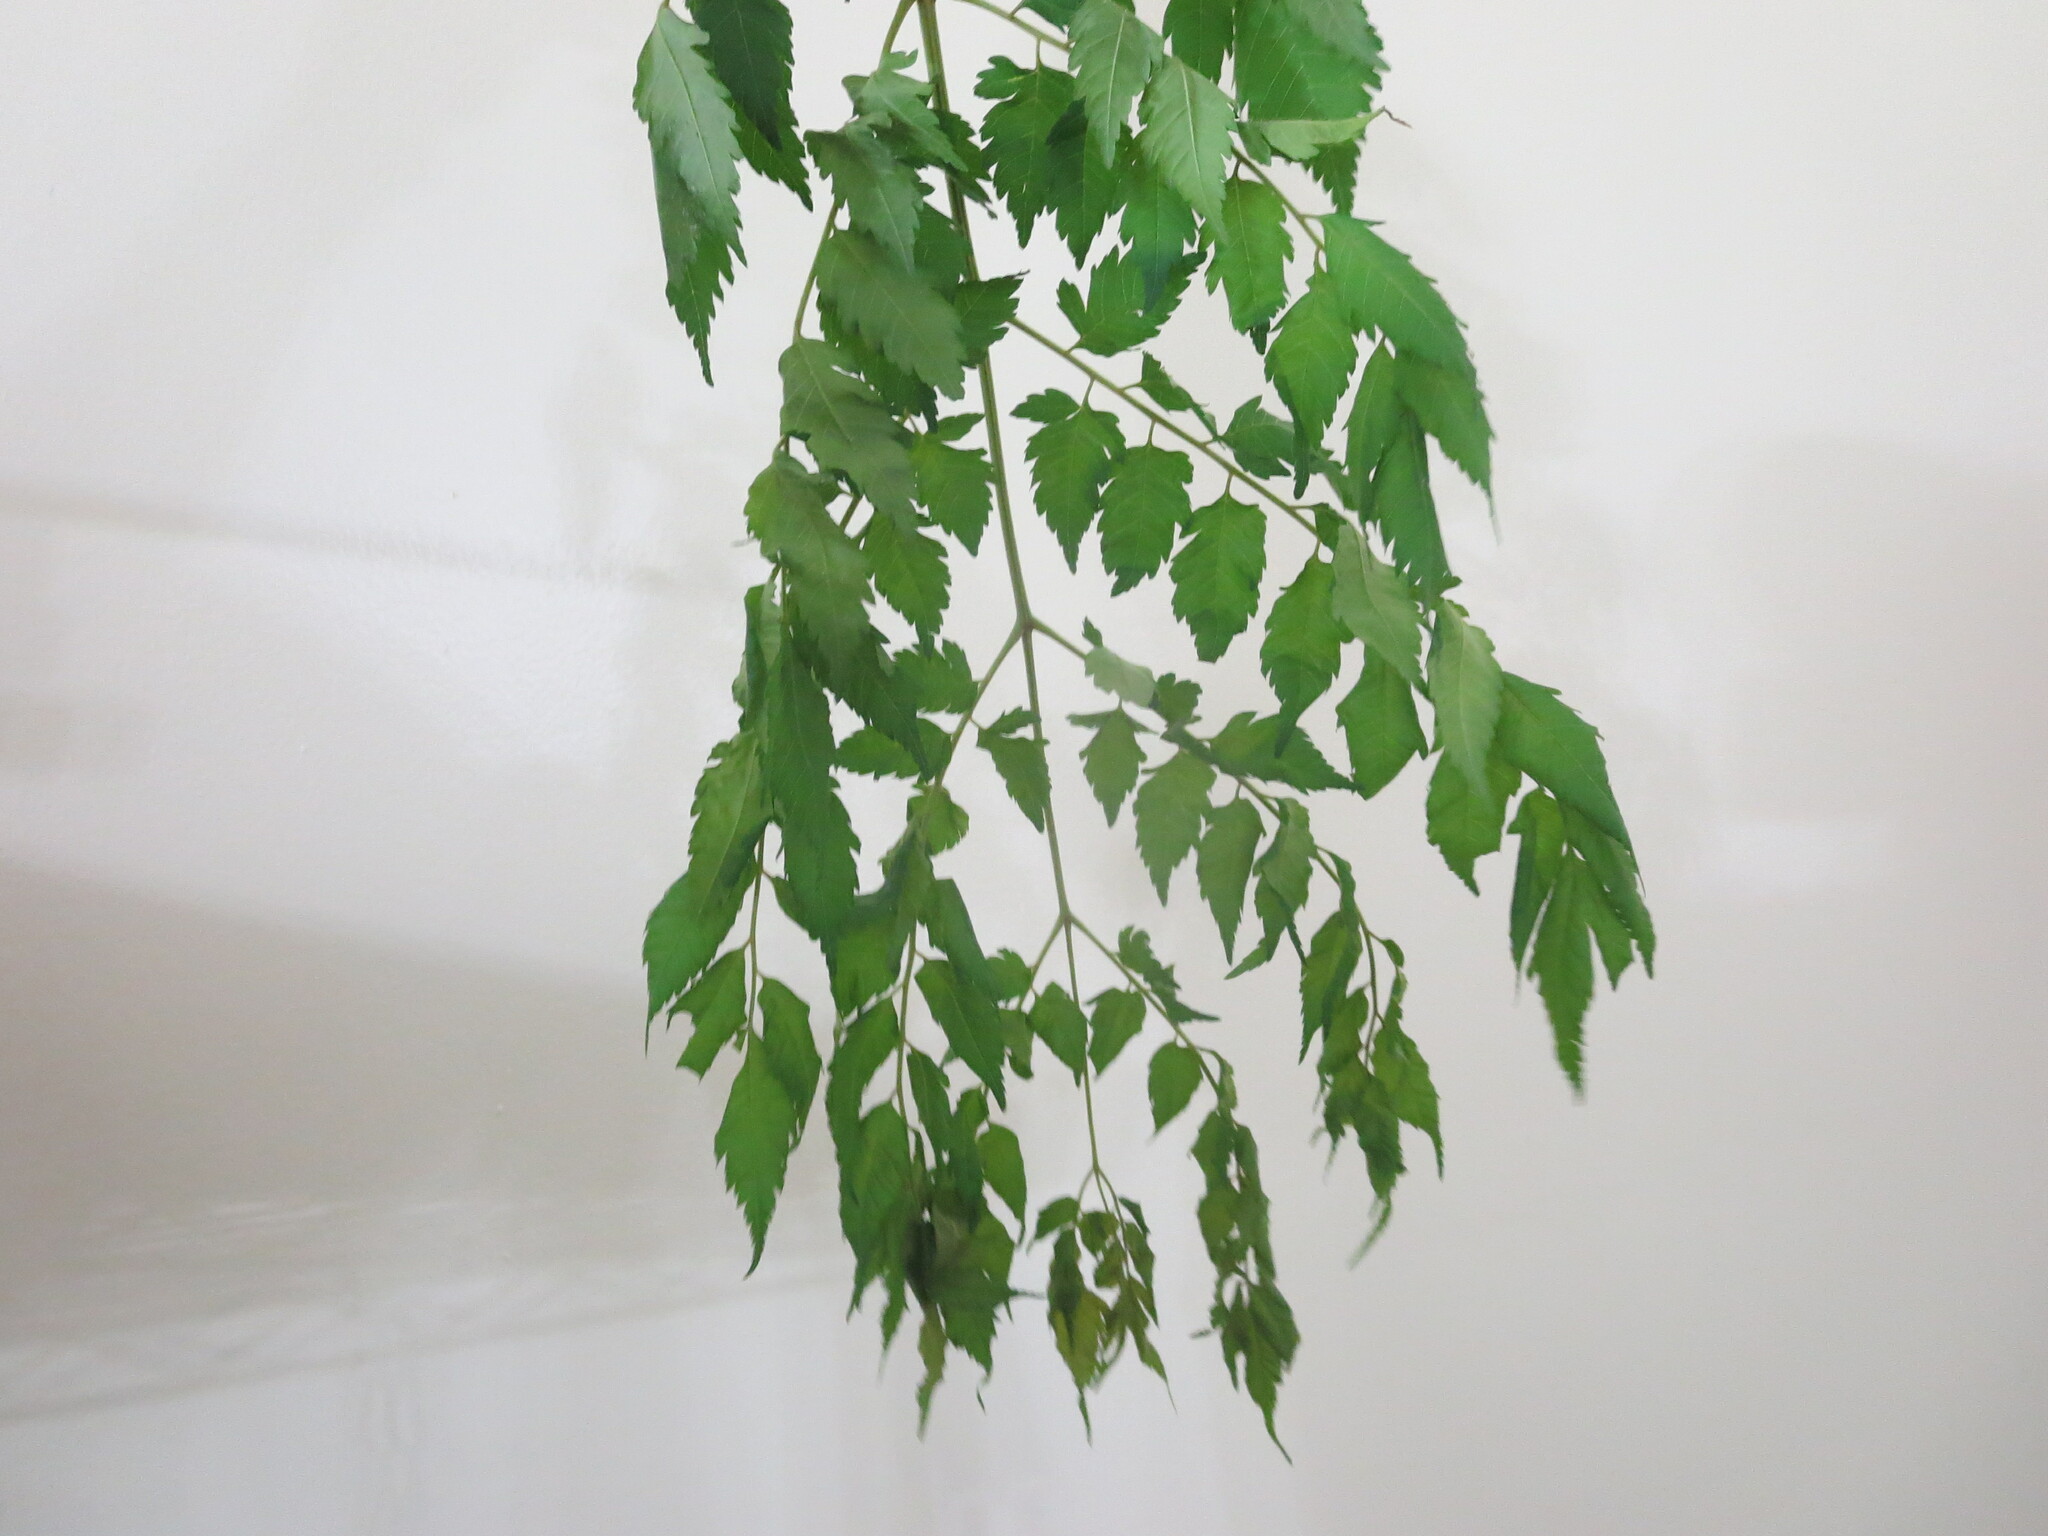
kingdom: Plantae
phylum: Tracheophyta
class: Magnoliopsida
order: Sapindales
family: Meliaceae
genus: Melia
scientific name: Melia azedarach
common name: Chinaberrytree
